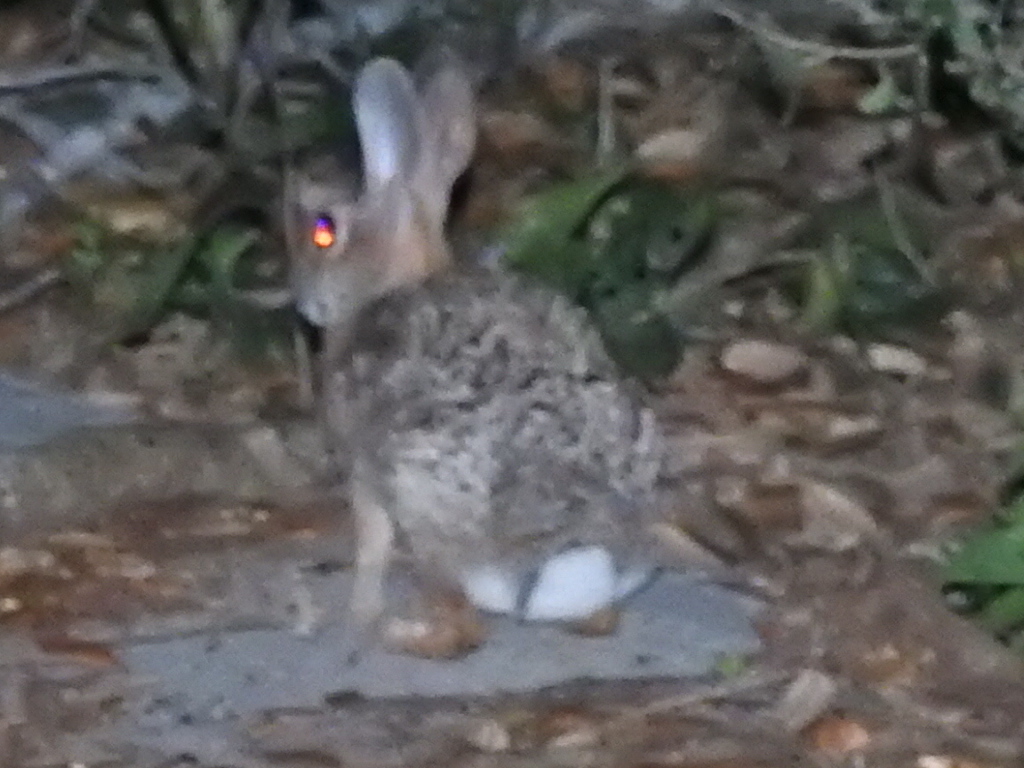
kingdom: Animalia
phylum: Chordata
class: Mammalia
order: Lagomorpha
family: Leporidae
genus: Sylvilagus
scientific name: Sylvilagus audubonii
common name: Desert cottontail
